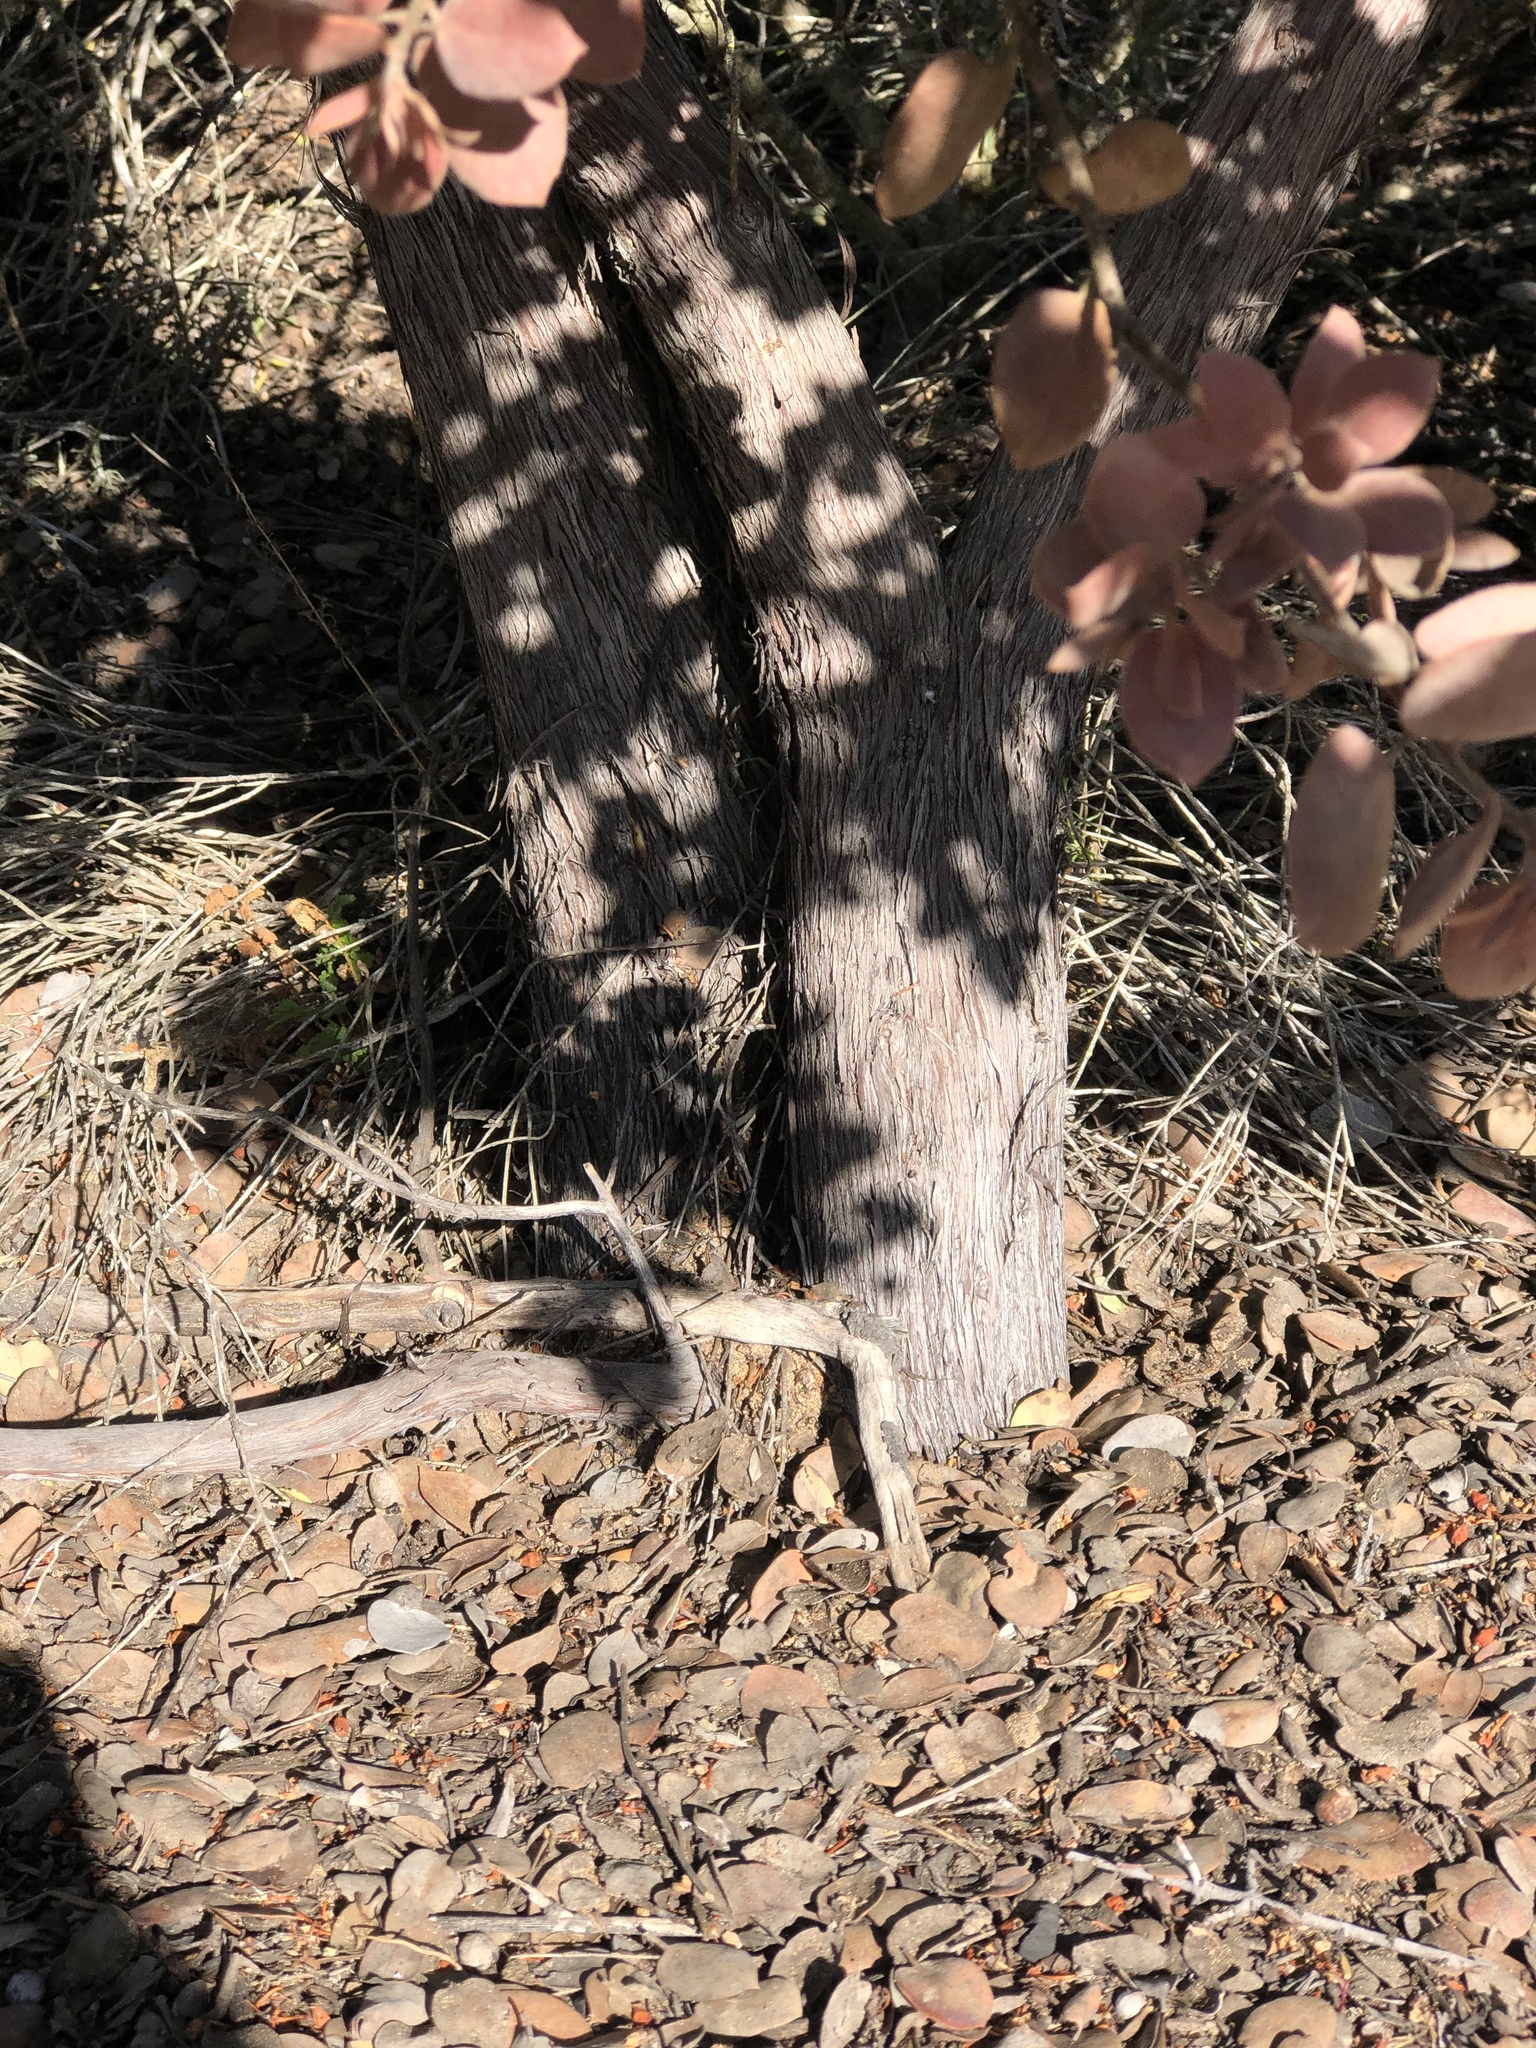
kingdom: Plantae
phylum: Tracheophyta
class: Magnoliopsida
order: Ericales
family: Ericaceae
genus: Arctostaphylos
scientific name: Arctostaphylos morroensis
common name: Morro manzanita
